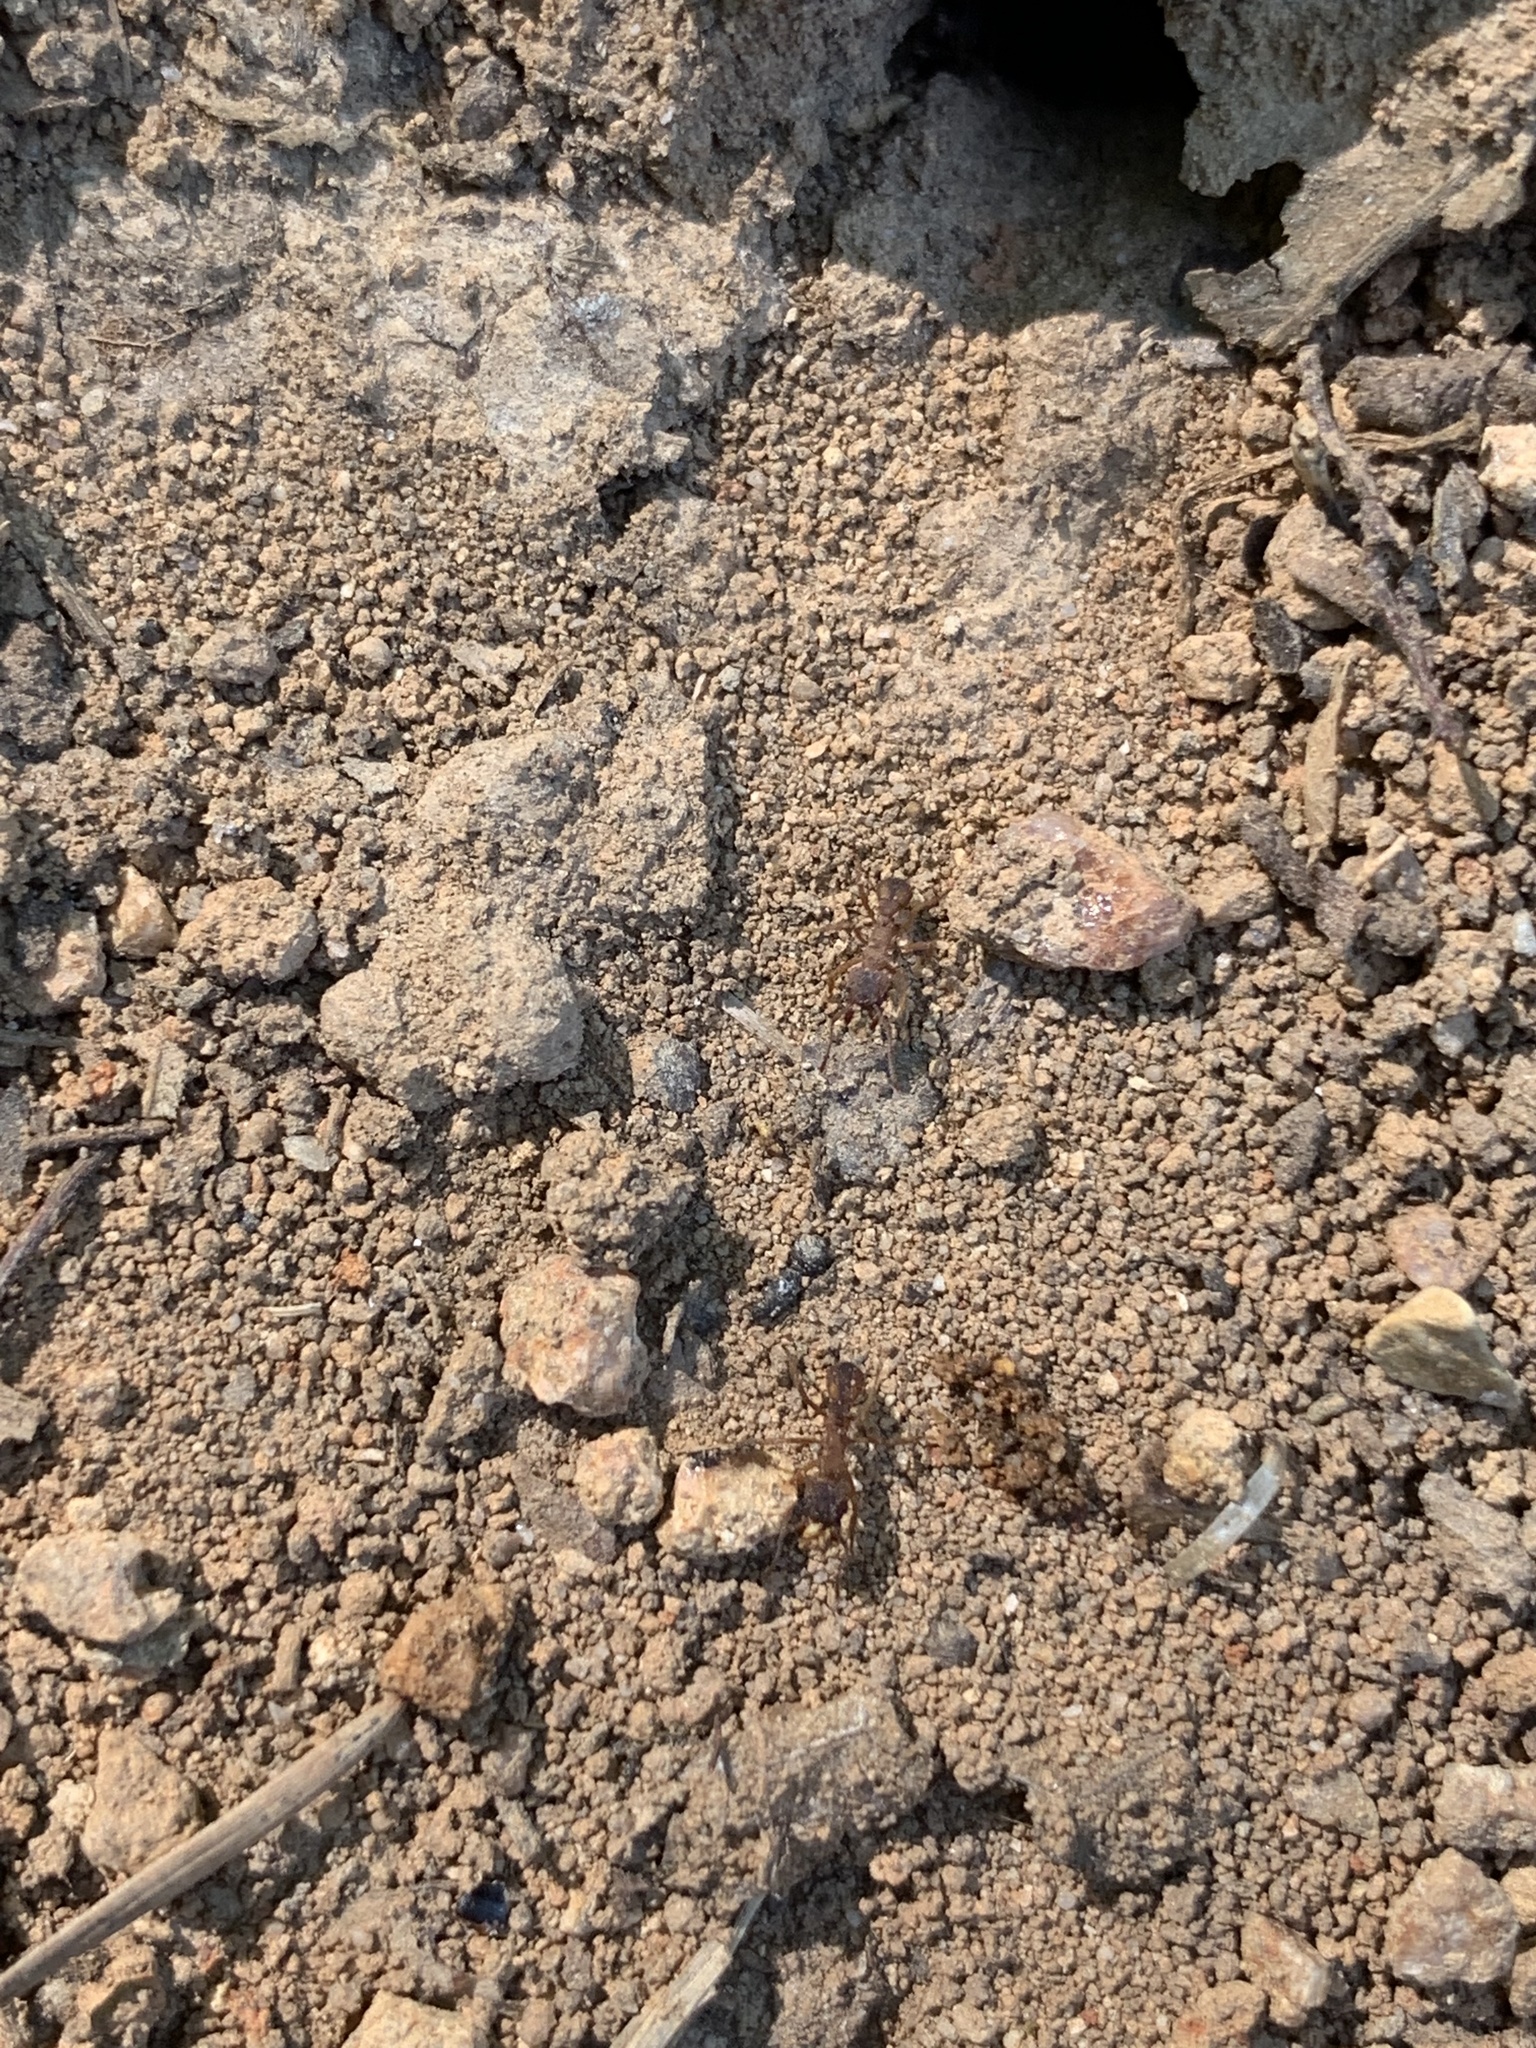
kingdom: Animalia
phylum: Arthropoda
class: Insecta
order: Hymenoptera
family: Formicidae
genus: Trachymyrmex
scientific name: Trachymyrmex septentrionalis
